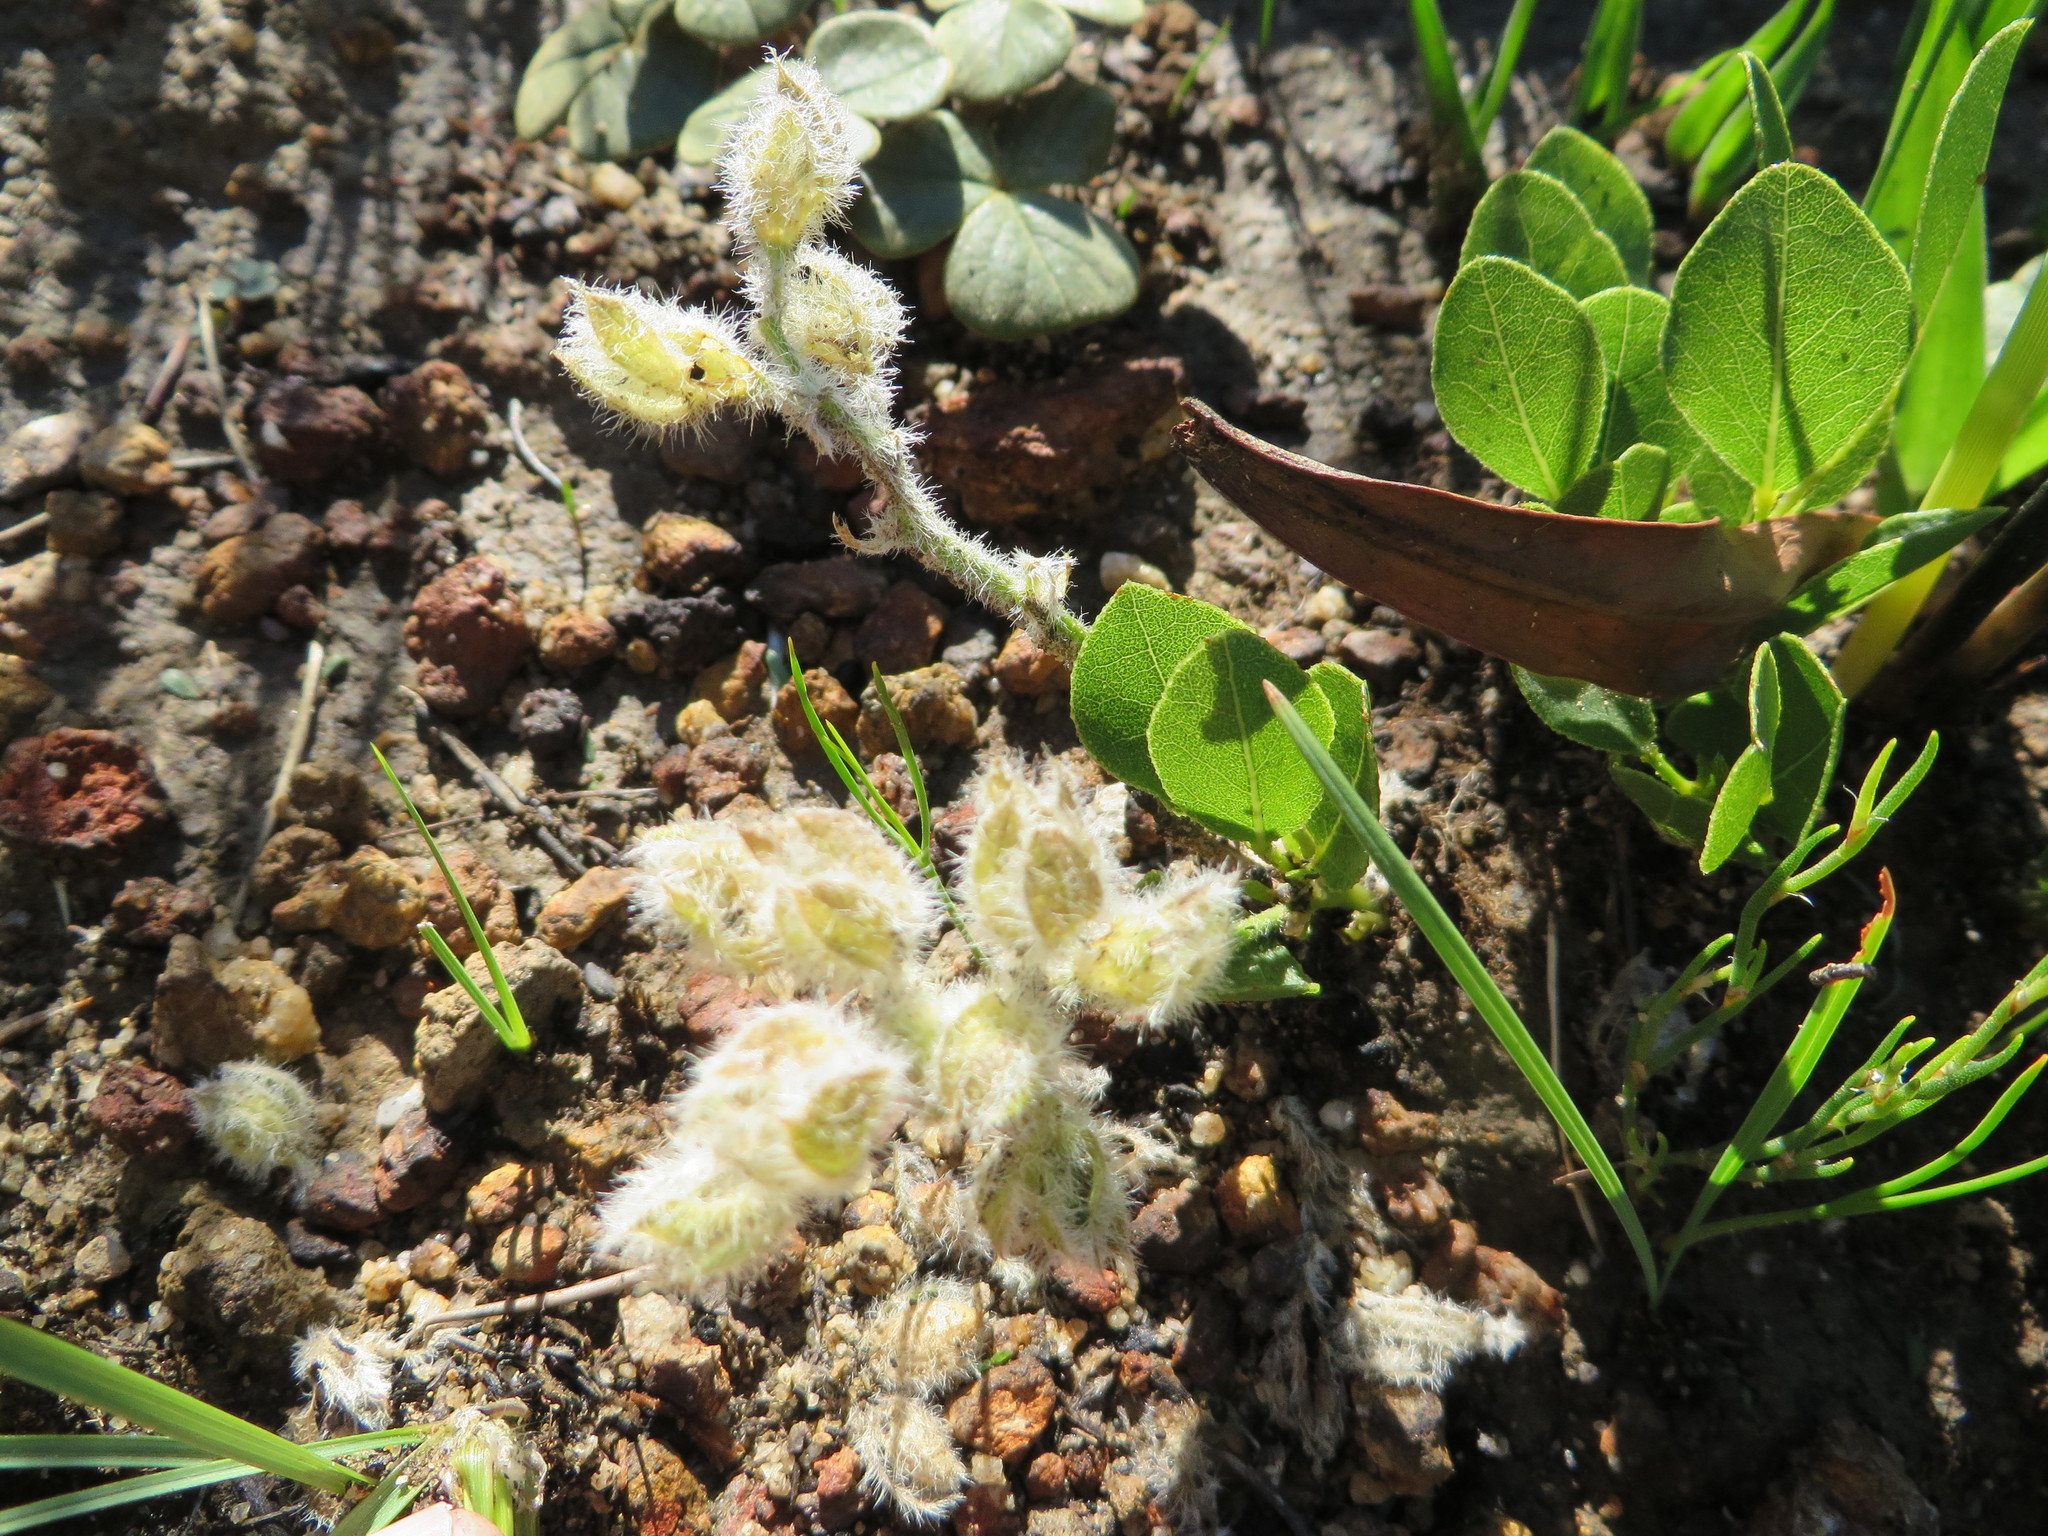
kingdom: Plantae
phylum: Tracheophyta
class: Magnoliopsida
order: Fabales
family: Fabaceae
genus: Psoralea
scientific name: Psoralea rotundifolia
